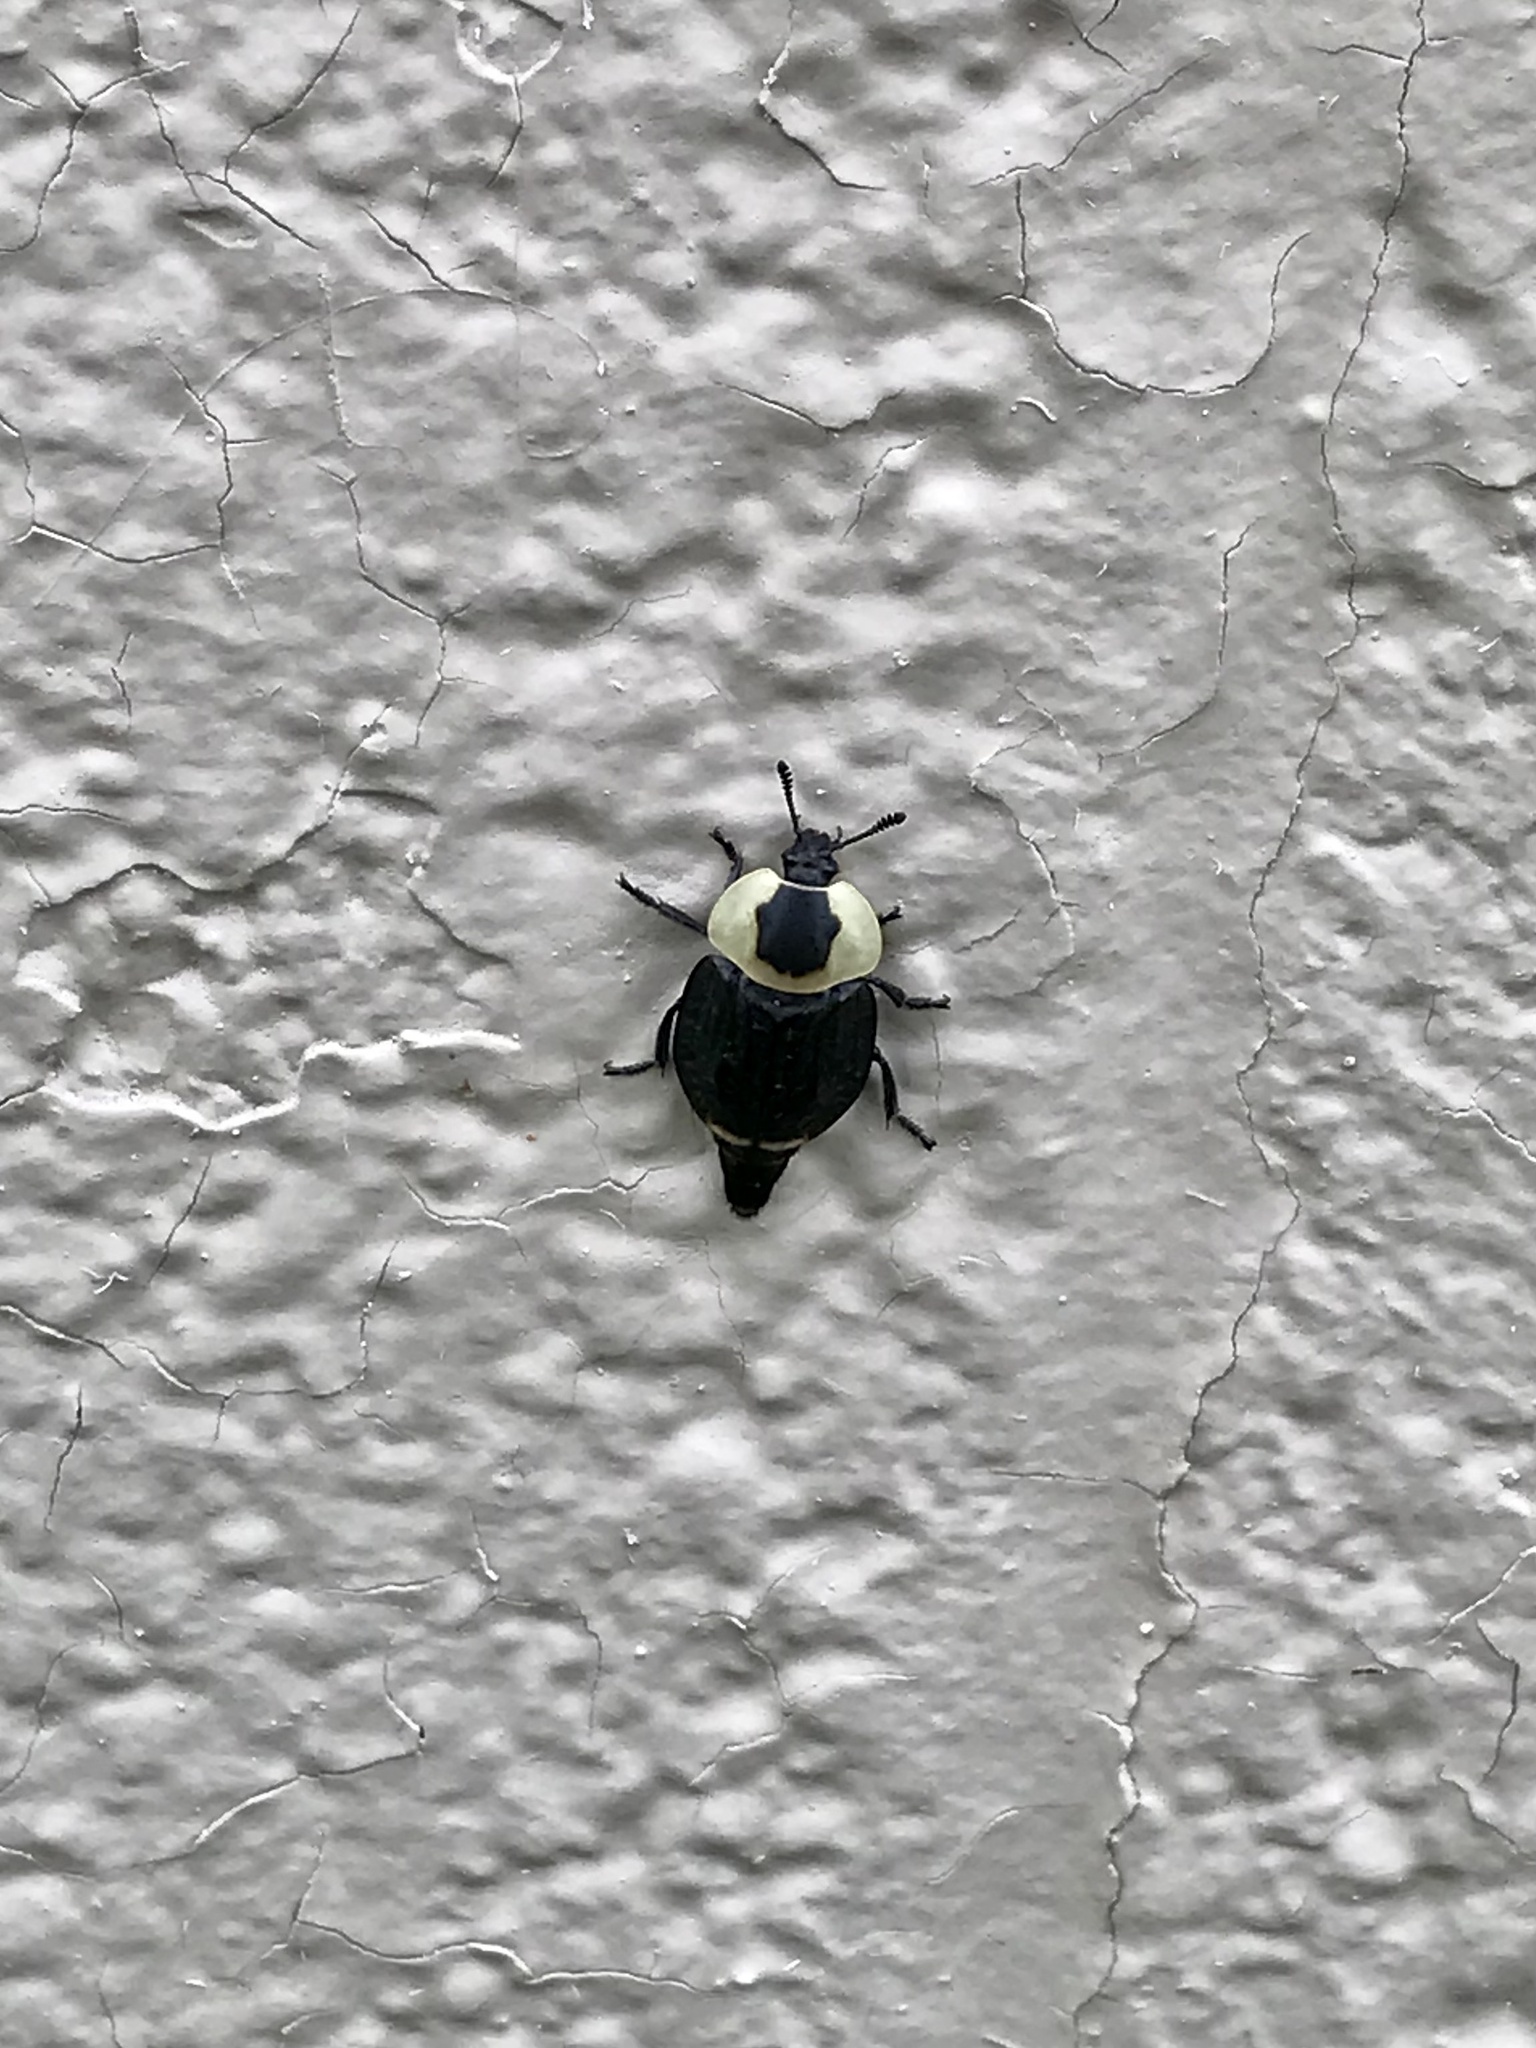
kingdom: Animalia
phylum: Arthropoda
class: Insecta
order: Coleoptera
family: Staphylinidae
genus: Necrophila
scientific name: Necrophila americana
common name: American carrion beetle
